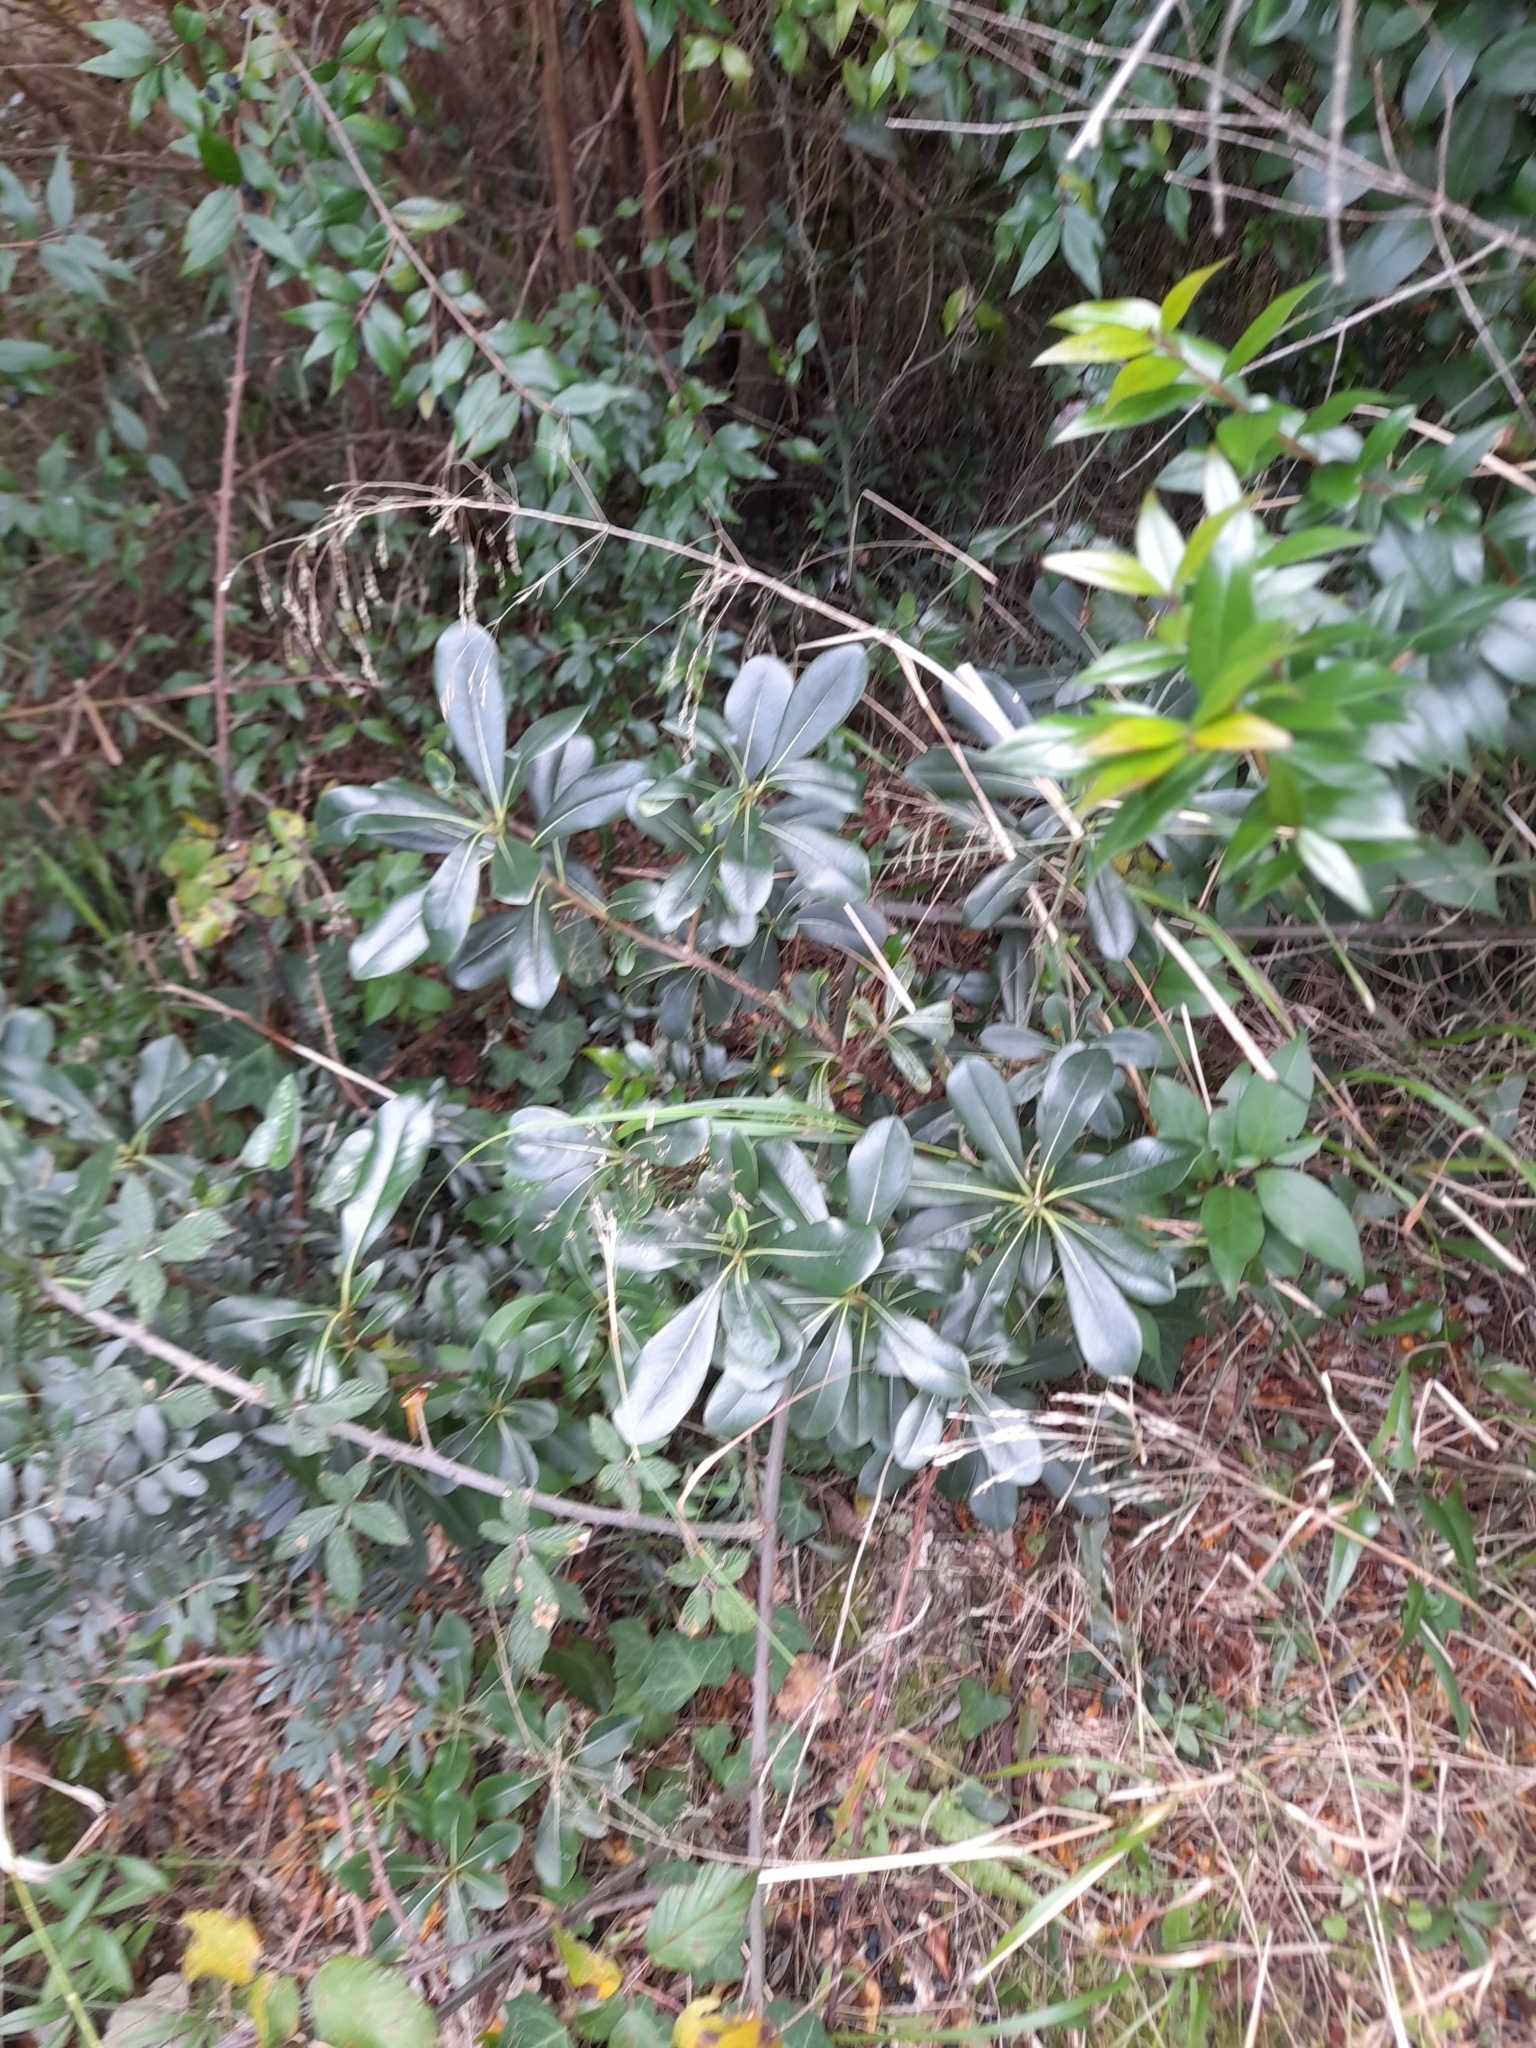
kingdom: Plantae
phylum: Tracheophyta
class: Magnoliopsida
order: Apiales
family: Pittosporaceae
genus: Pittosporum
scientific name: Pittosporum tobira
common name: Japanese cheesewood
